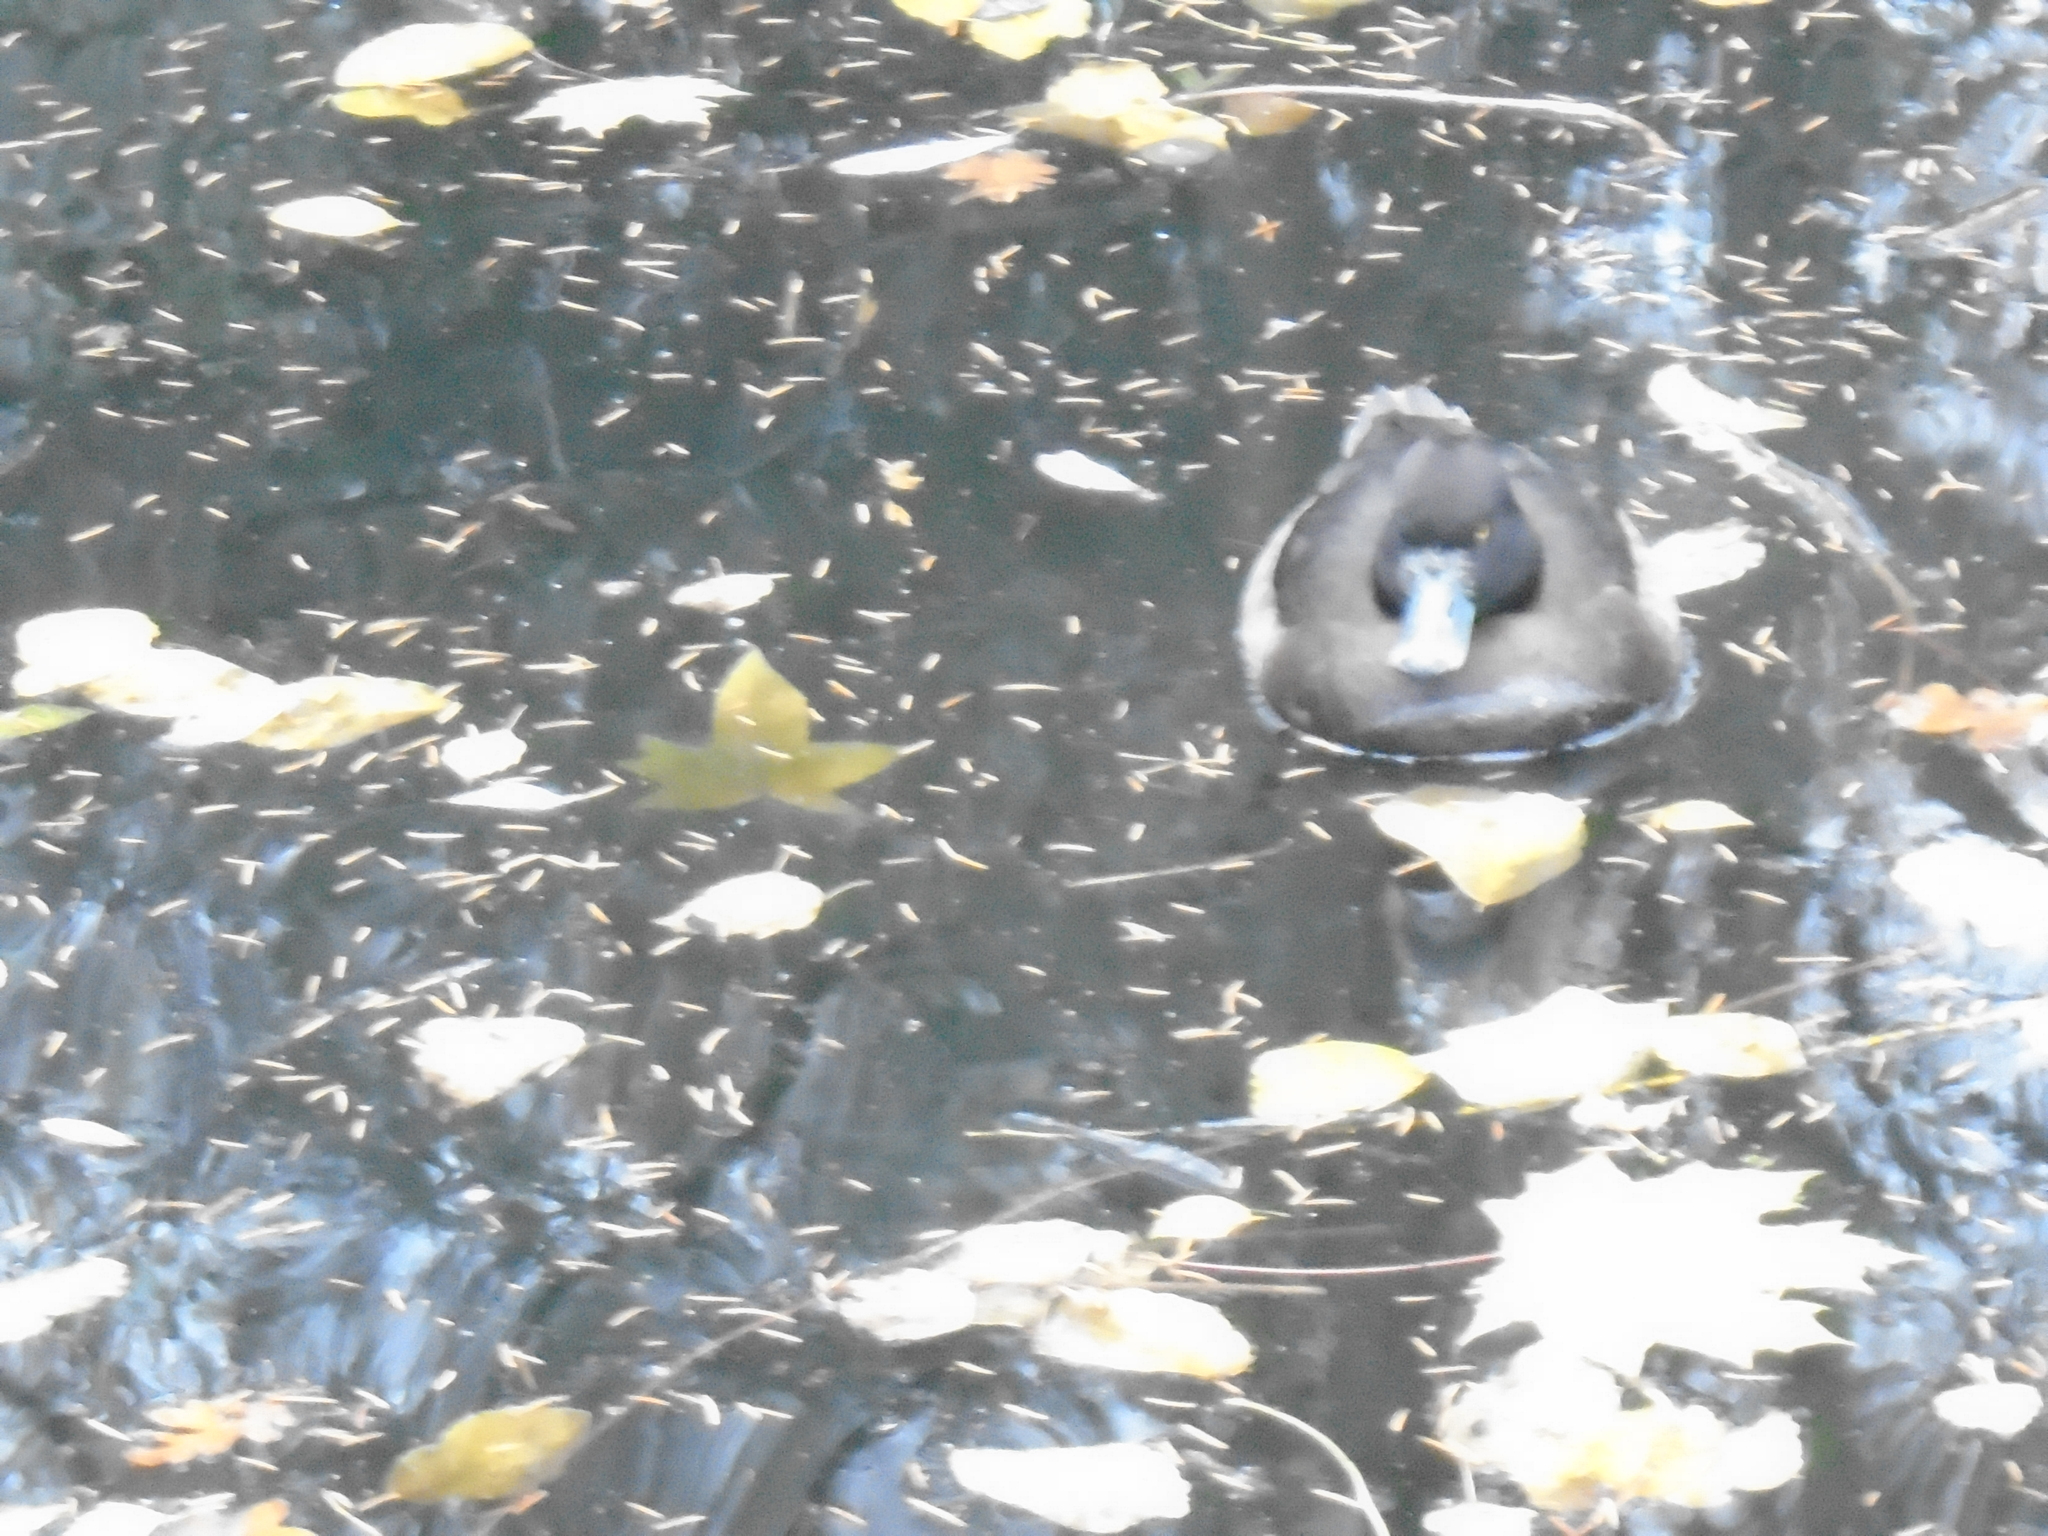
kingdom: Animalia
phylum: Chordata
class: Aves
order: Anseriformes
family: Anatidae
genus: Aythya
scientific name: Aythya fuligula
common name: Tufted duck
